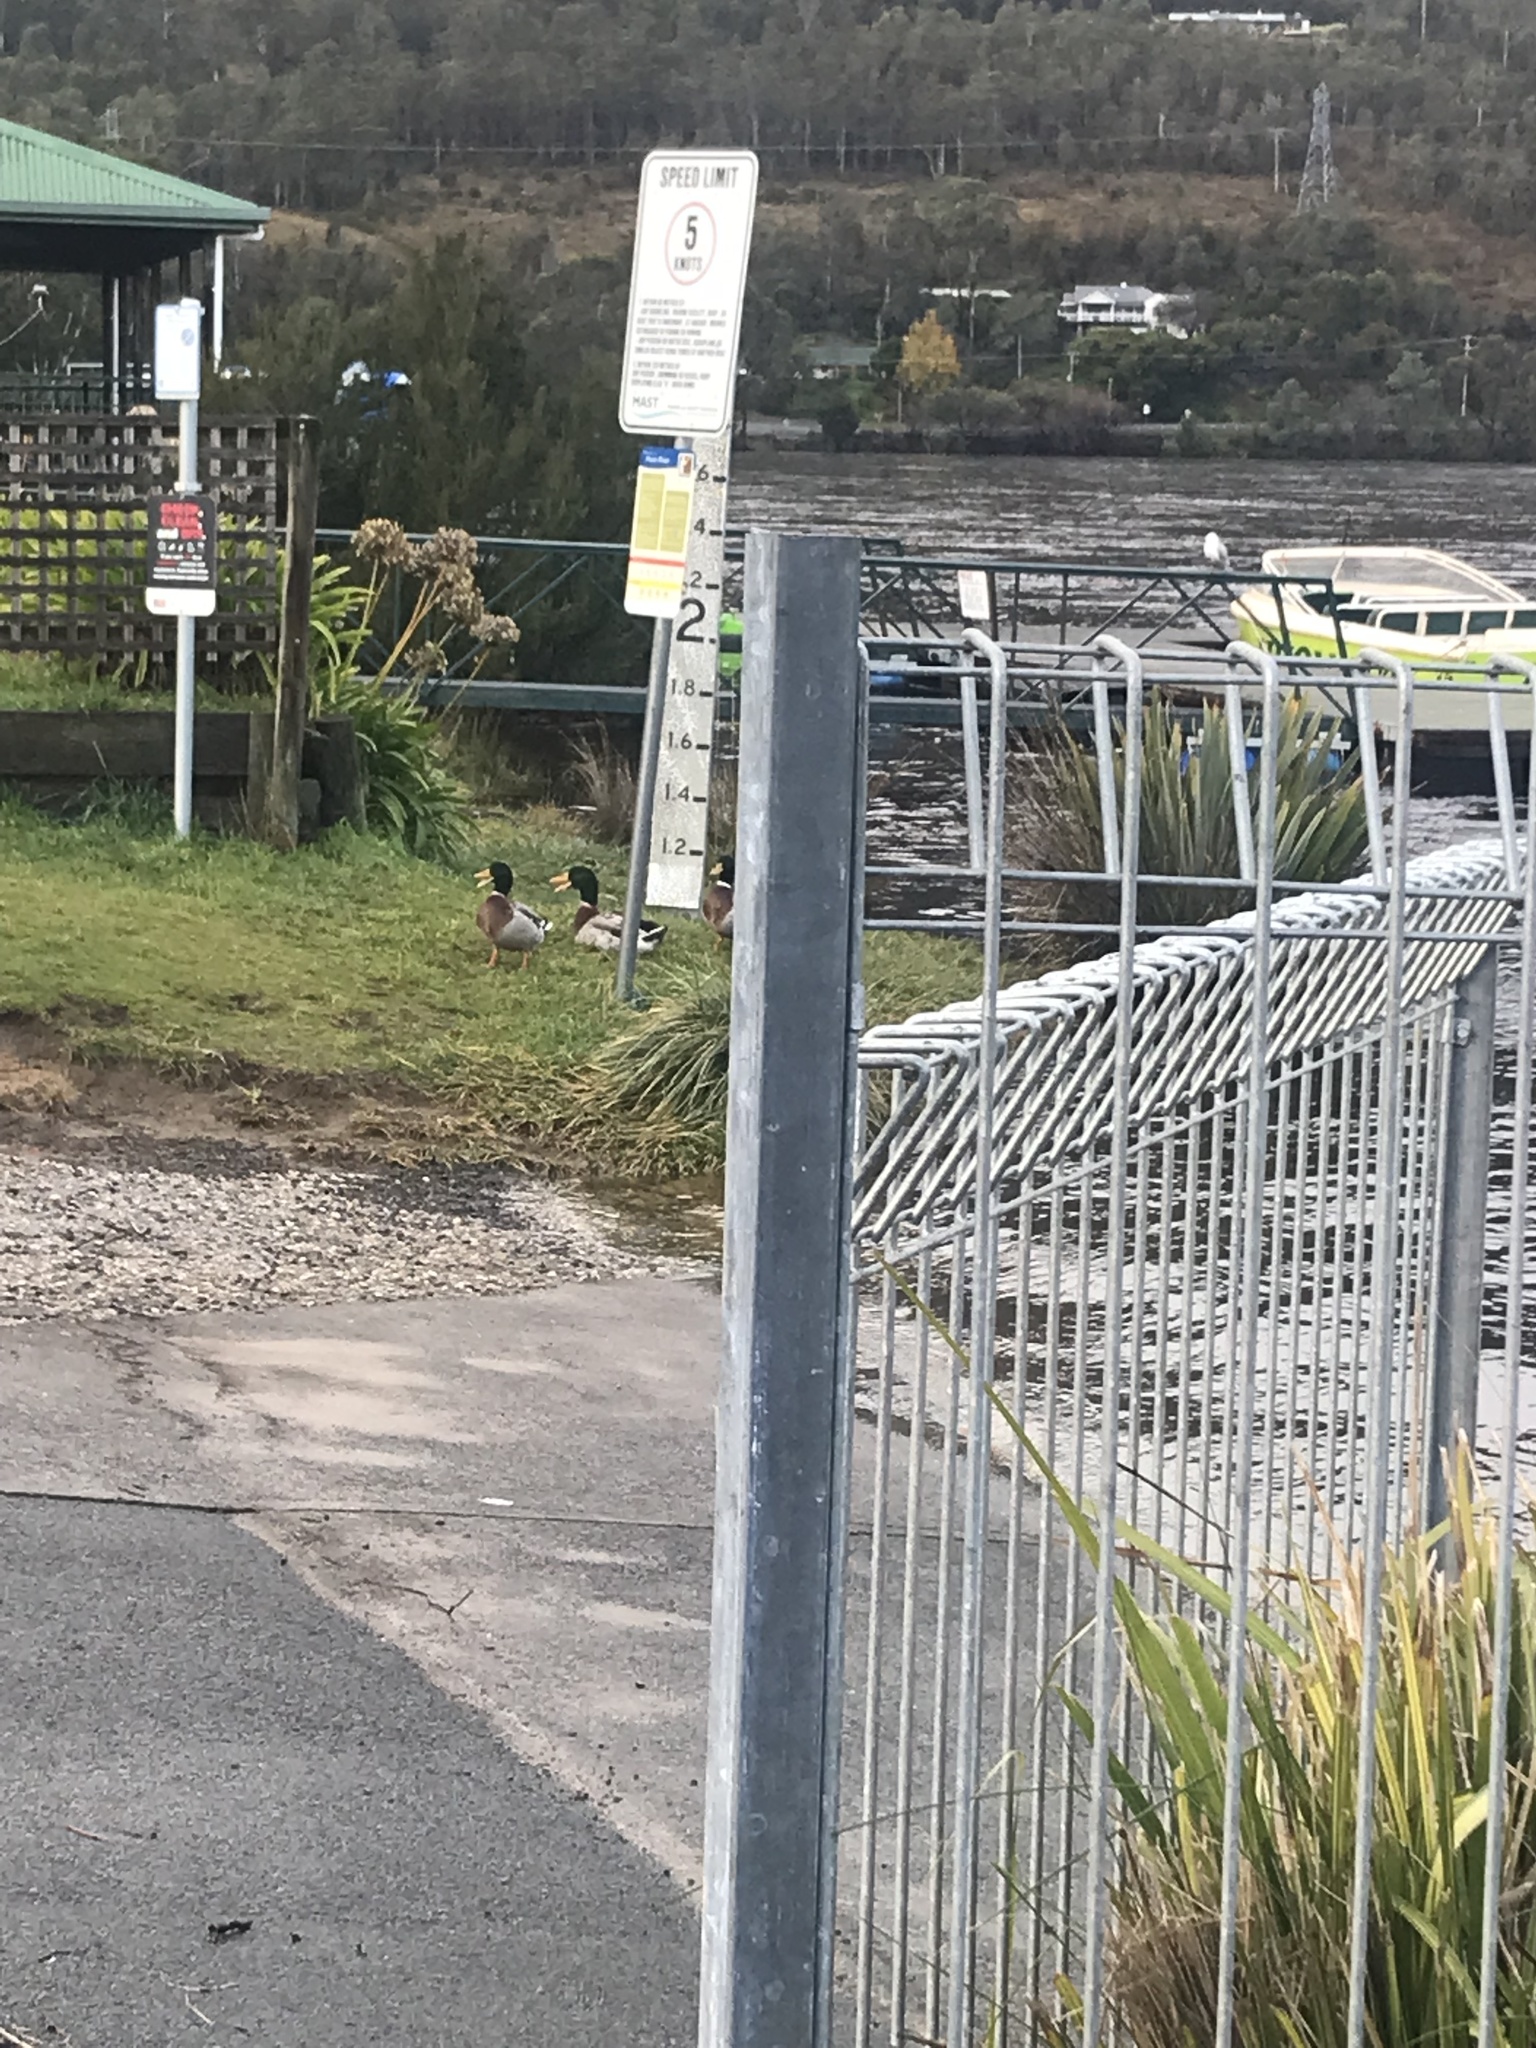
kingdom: Animalia
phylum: Chordata
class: Aves
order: Anseriformes
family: Anatidae
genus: Anas
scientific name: Anas platyrhynchos
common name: Mallard
